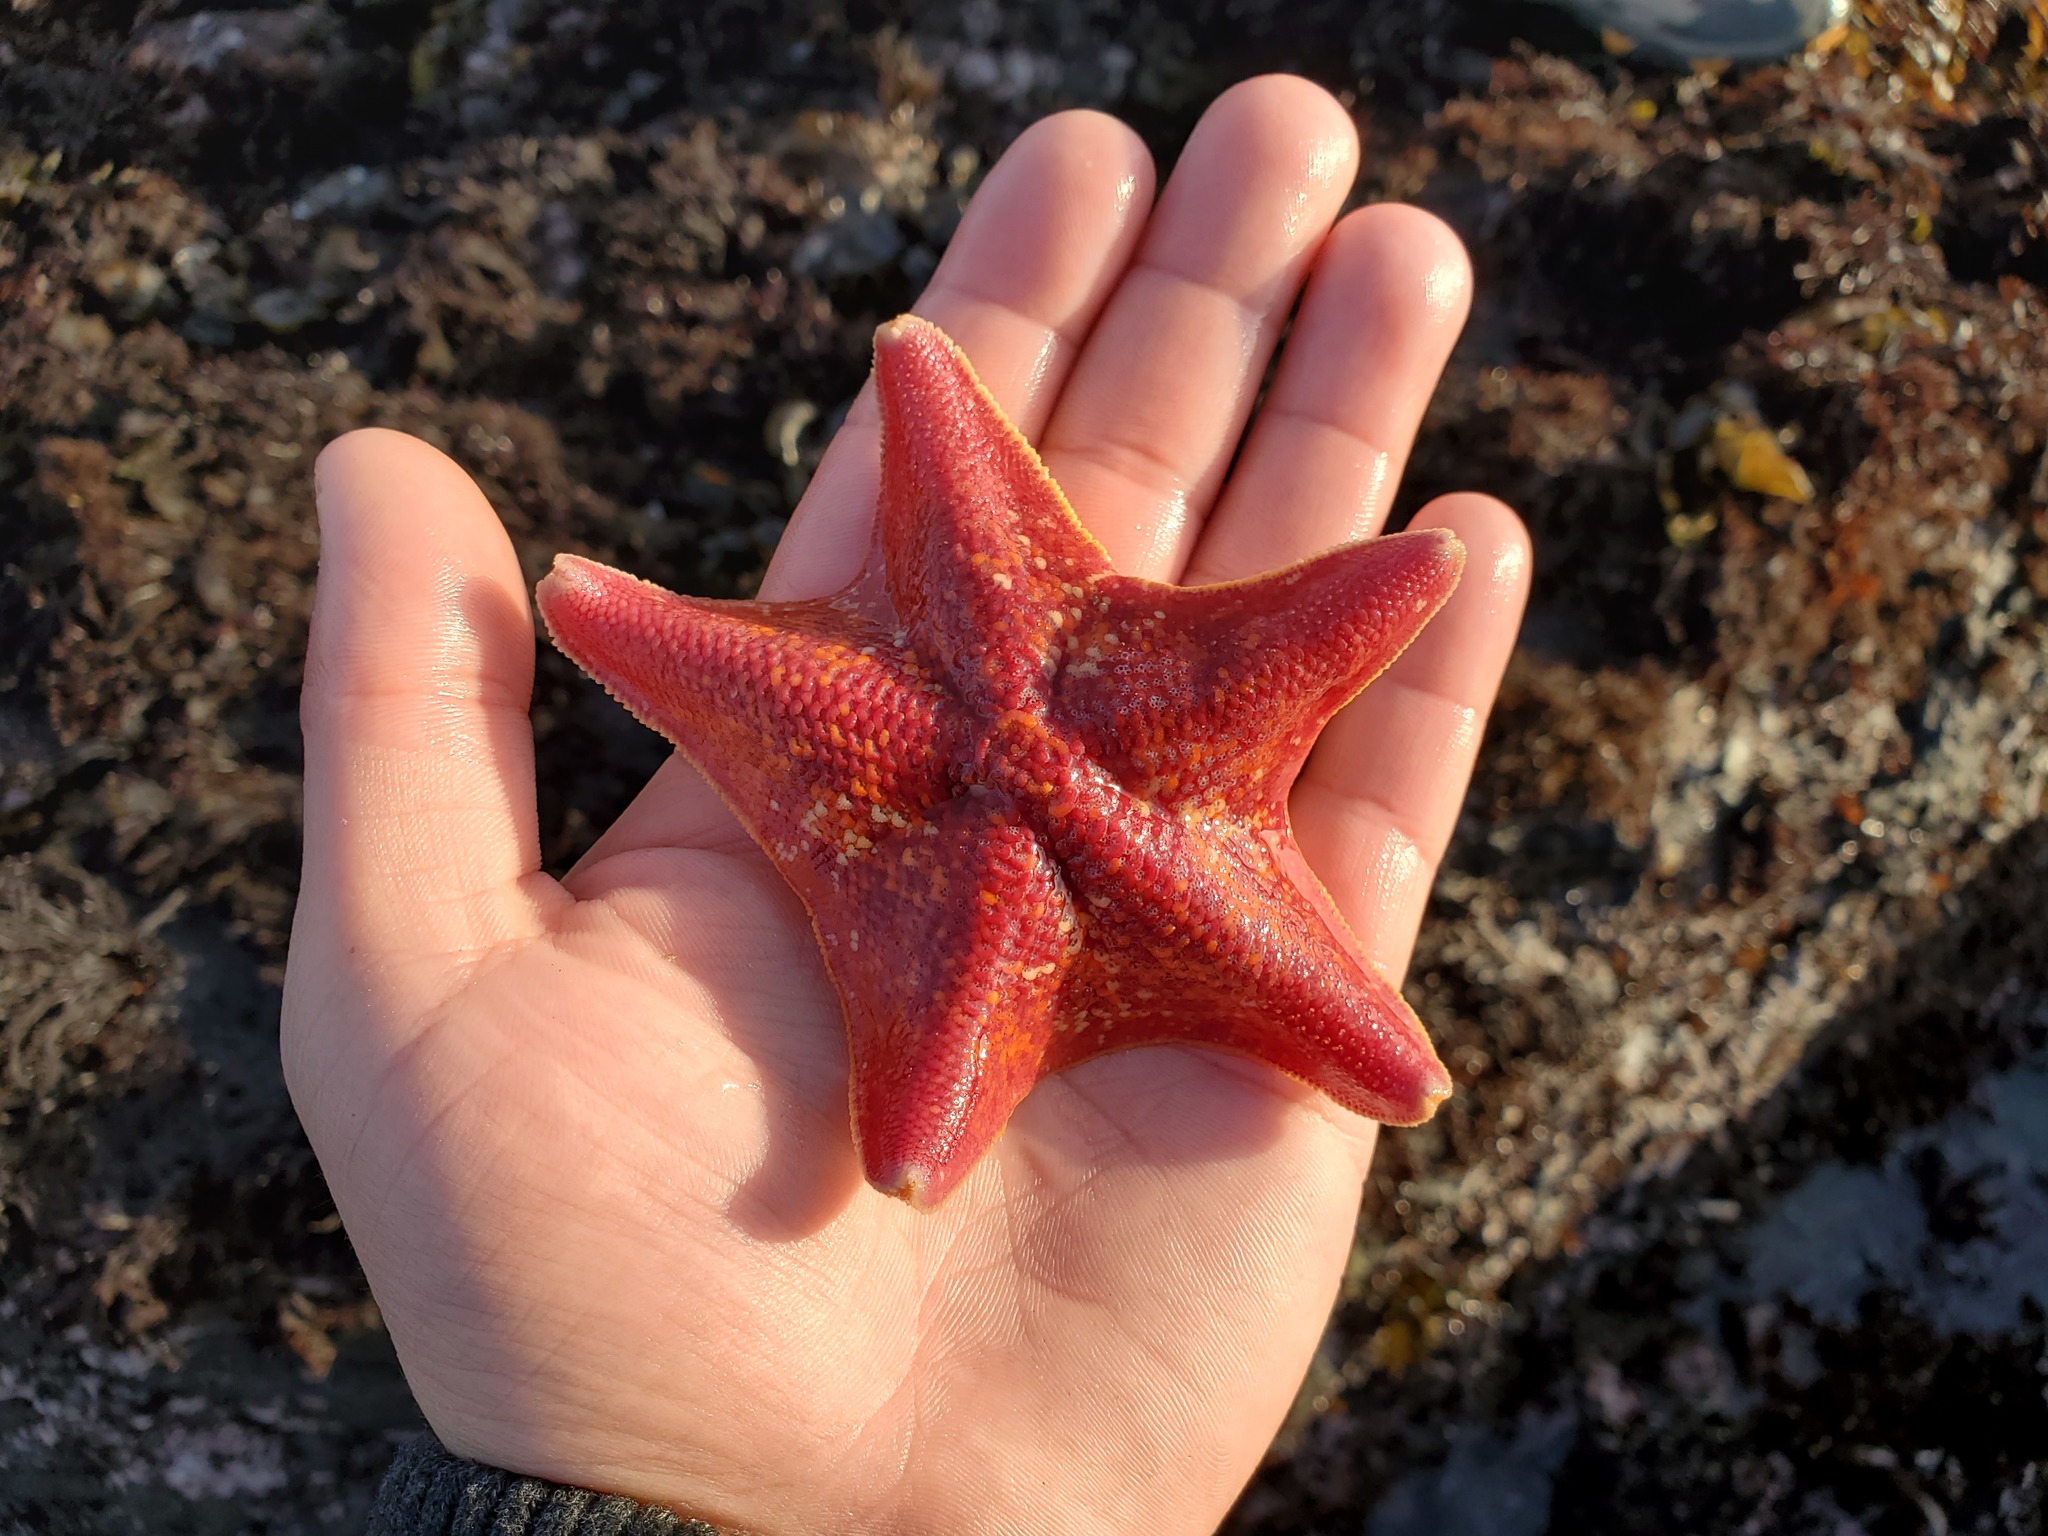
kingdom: Animalia
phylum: Echinodermata
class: Asteroidea
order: Valvatida
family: Asterinidae
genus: Patiria
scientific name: Patiria miniata
